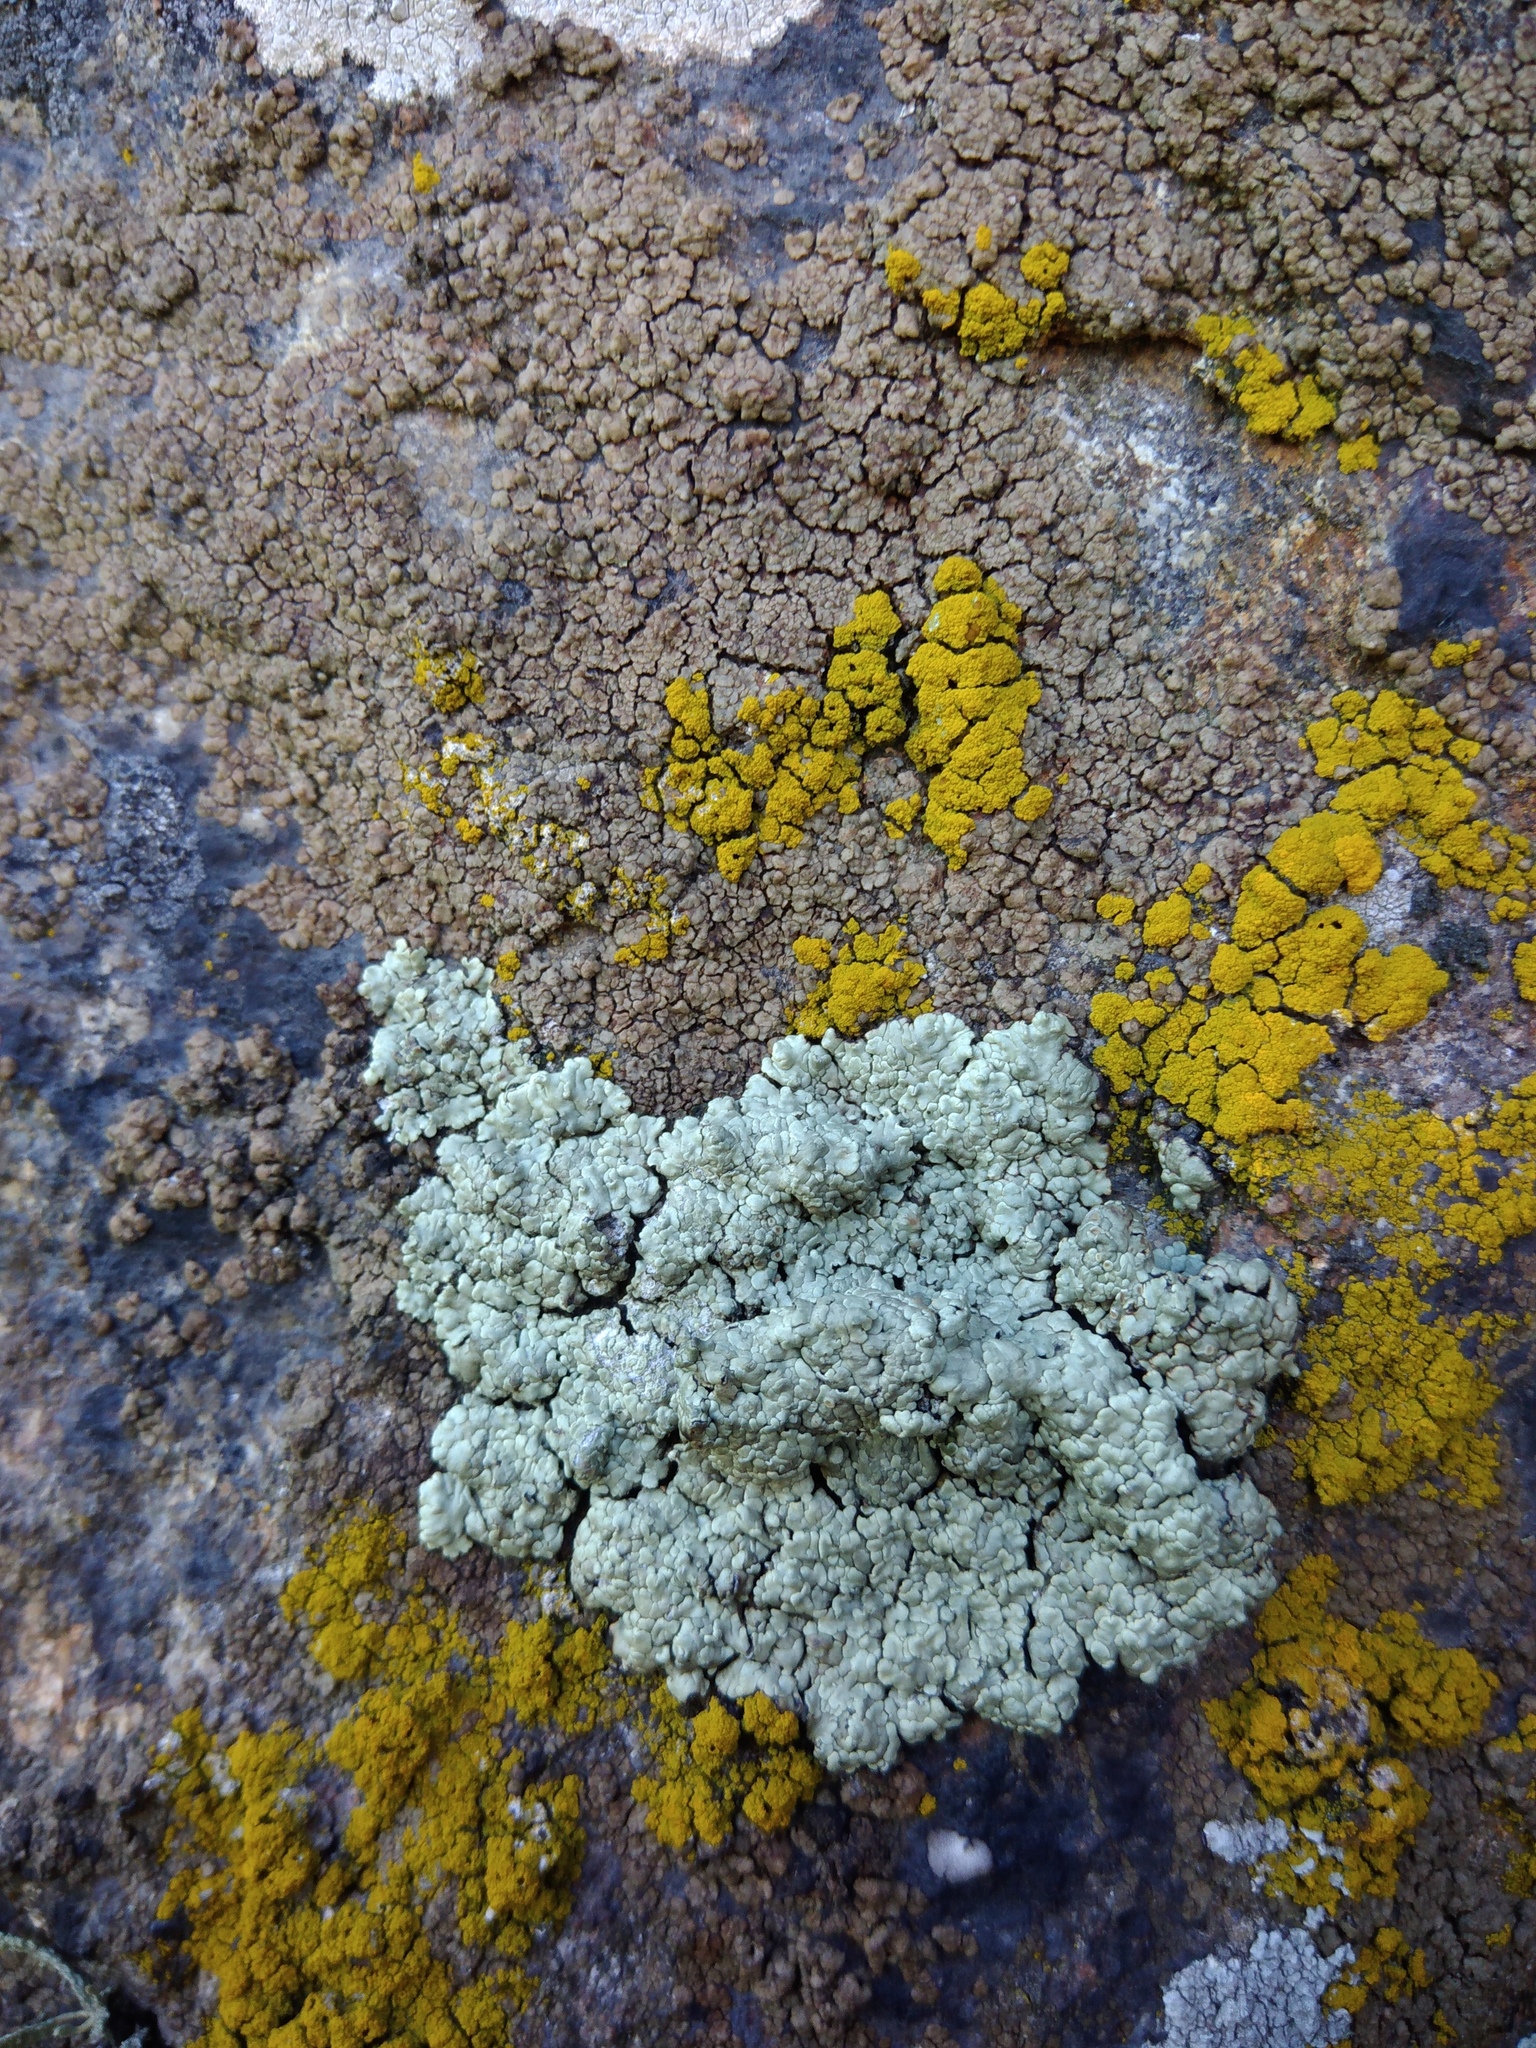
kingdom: Fungi
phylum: Ascomycota
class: Lecanoromycetes
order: Lecanorales
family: Lecanoraceae
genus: Protoparmeliopsis
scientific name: Protoparmeliopsis muralis
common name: Stonewall rim lichen
